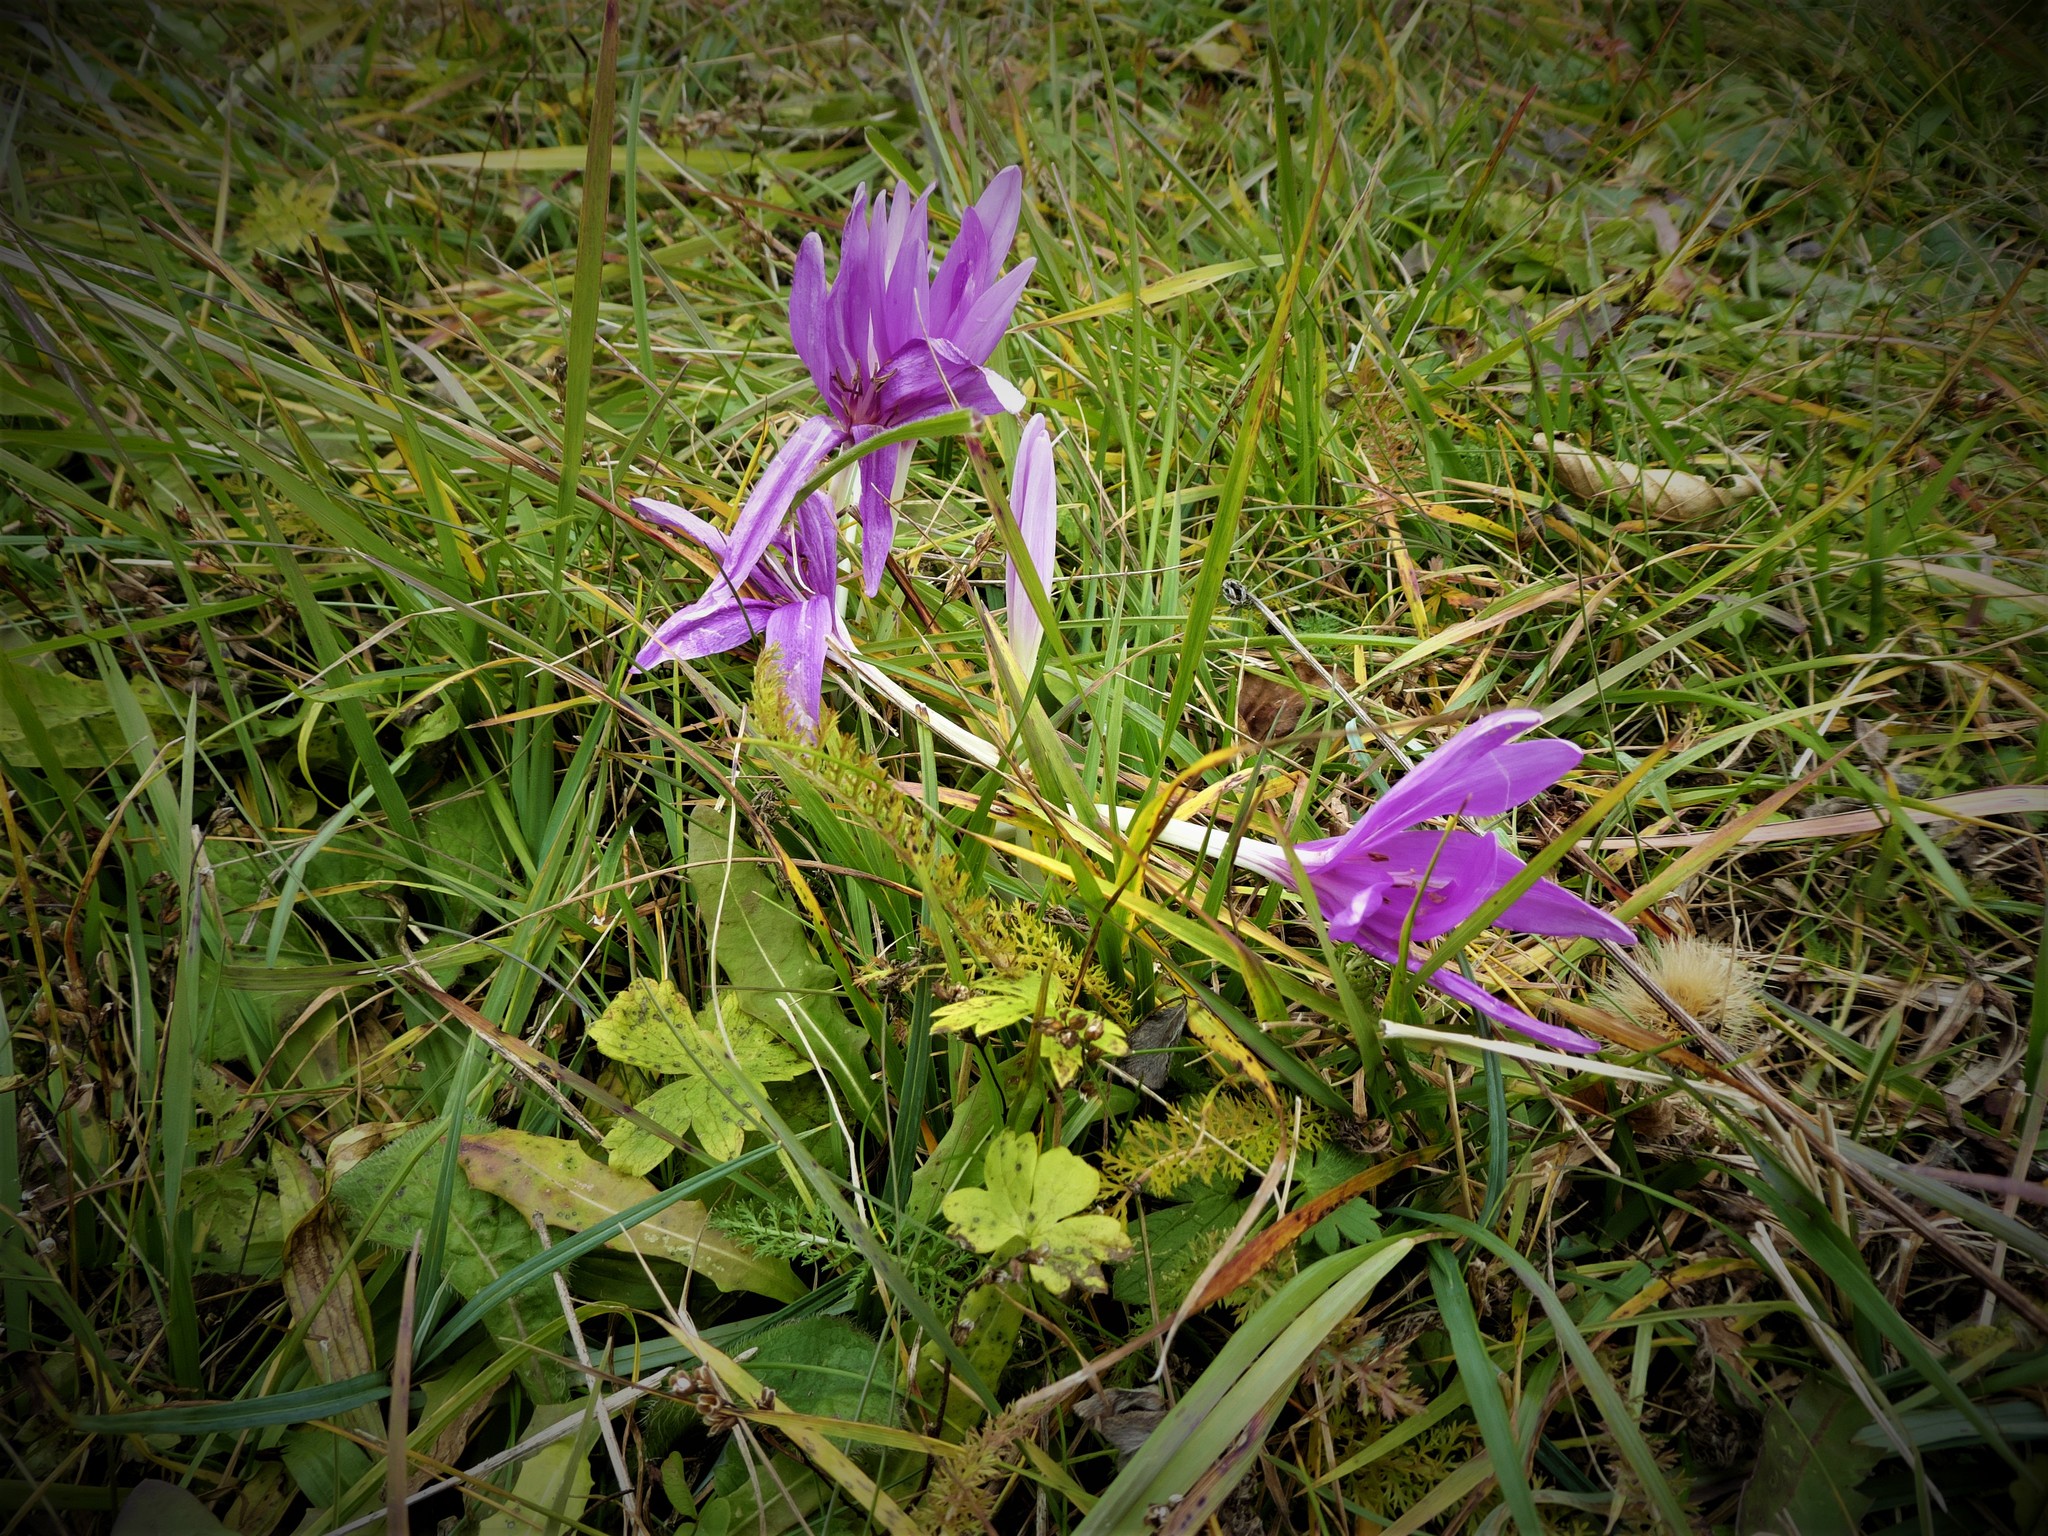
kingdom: Plantae
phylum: Tracheophyta
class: Liliopsida
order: Liliales
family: Colchicaceae
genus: Colchicum
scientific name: Colchicum autumnale
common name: Autumn crocus
